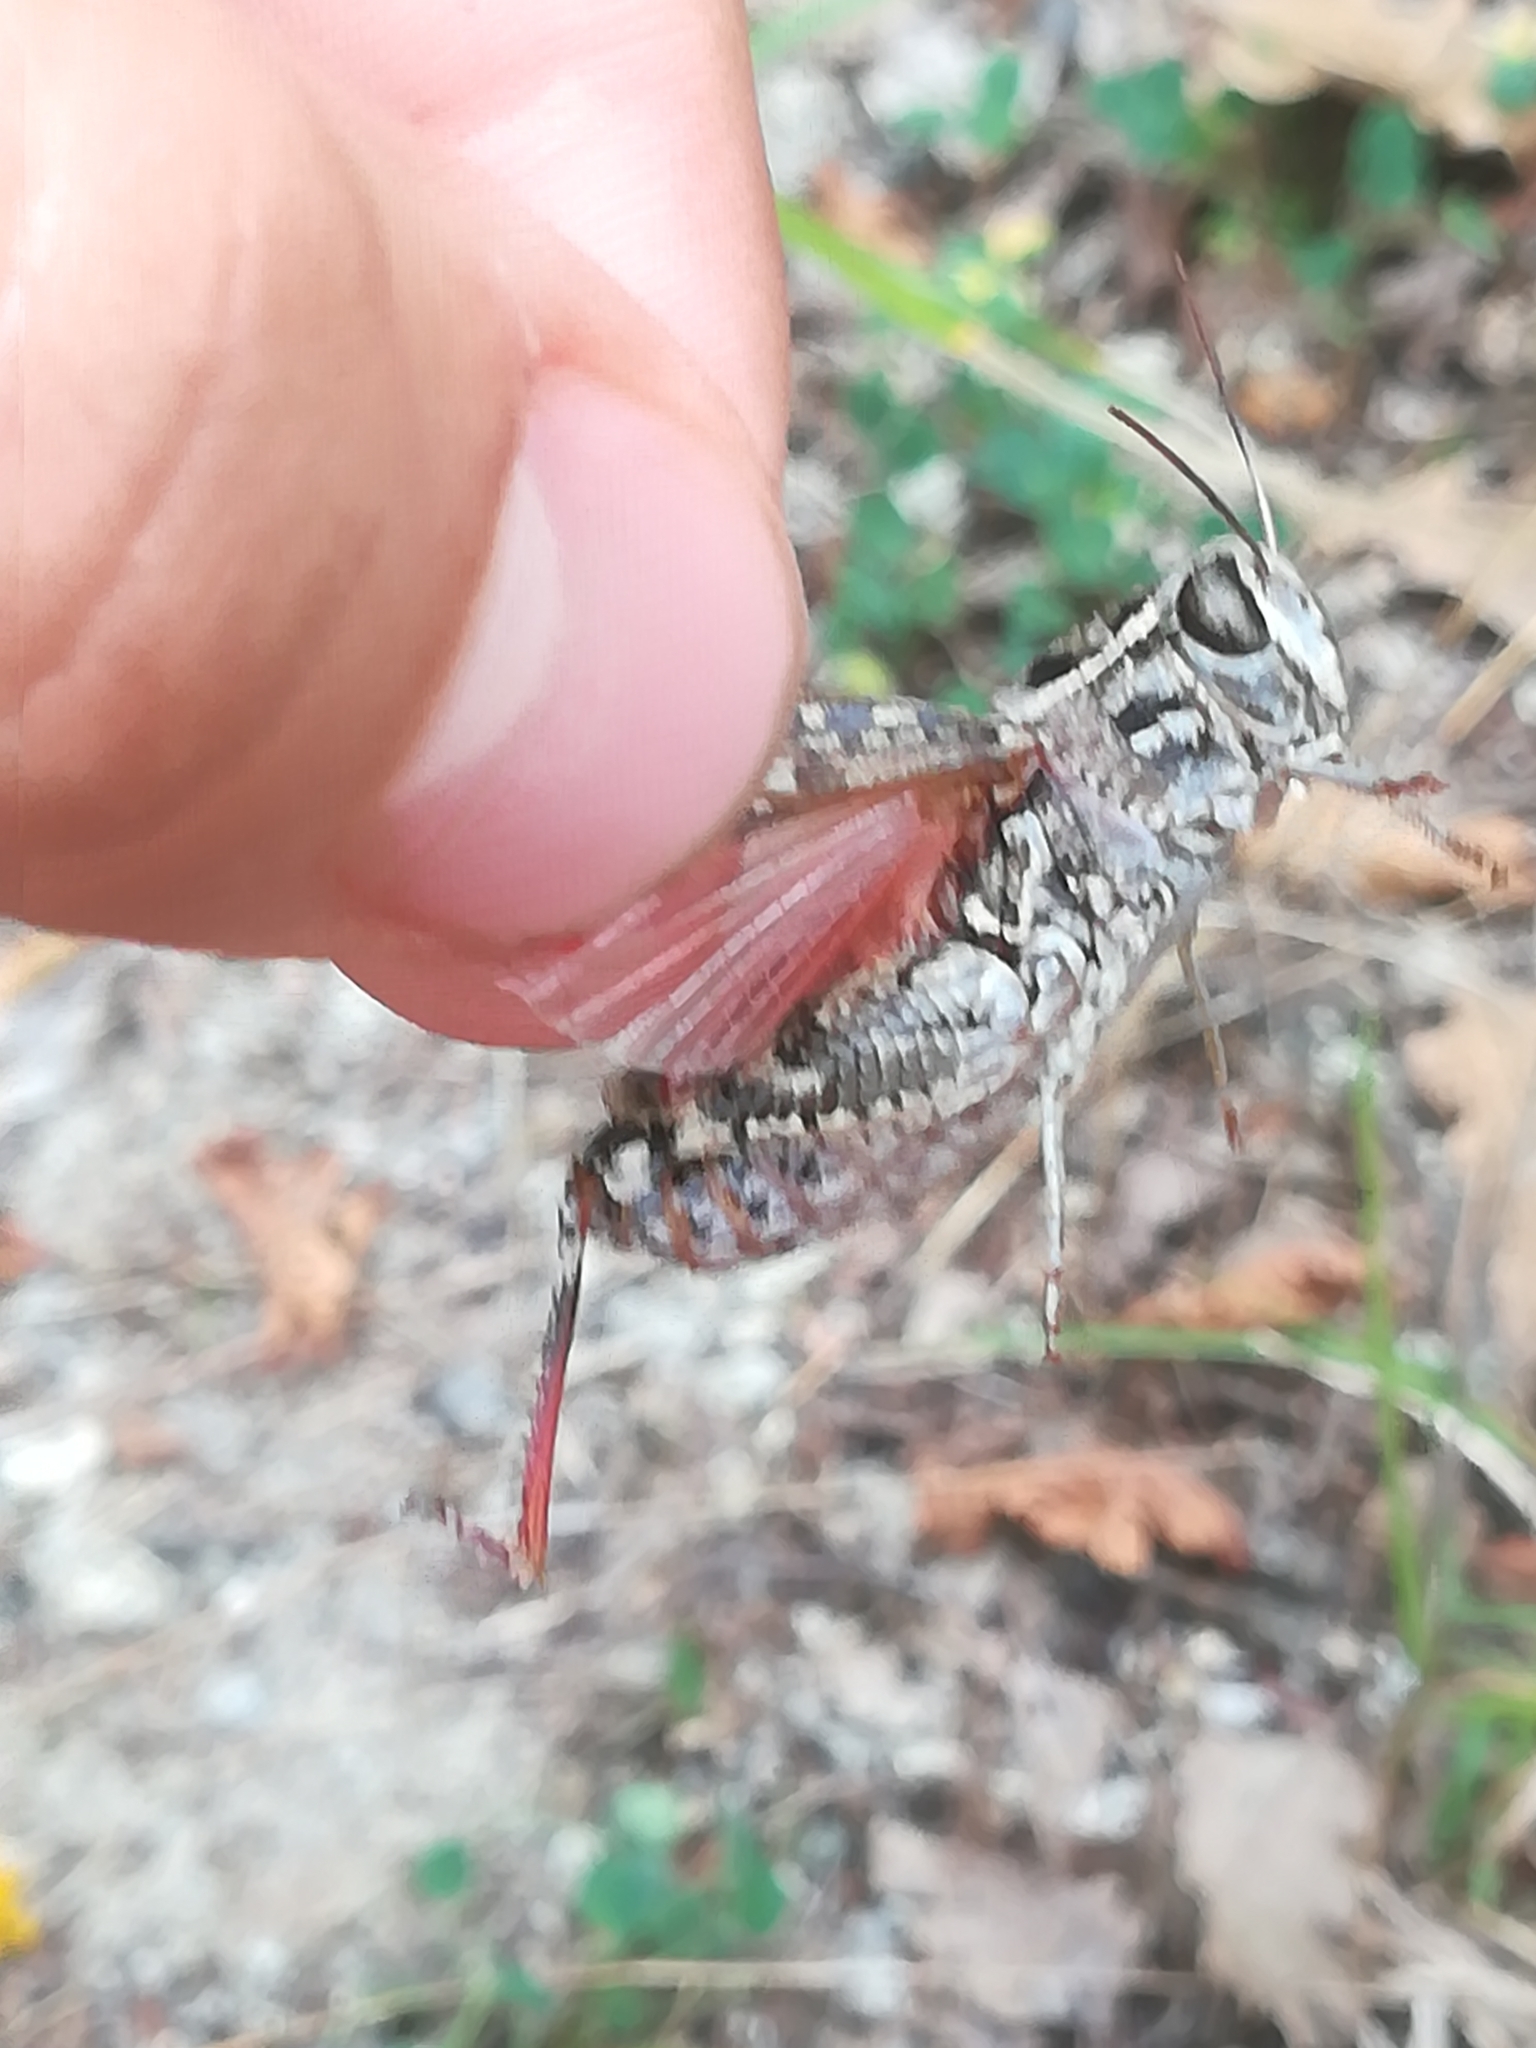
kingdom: Animalia
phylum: Arthropoda
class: Insecta
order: Orthoptera
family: Acrididae
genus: Calliptamus
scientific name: Calliptamus italicus
